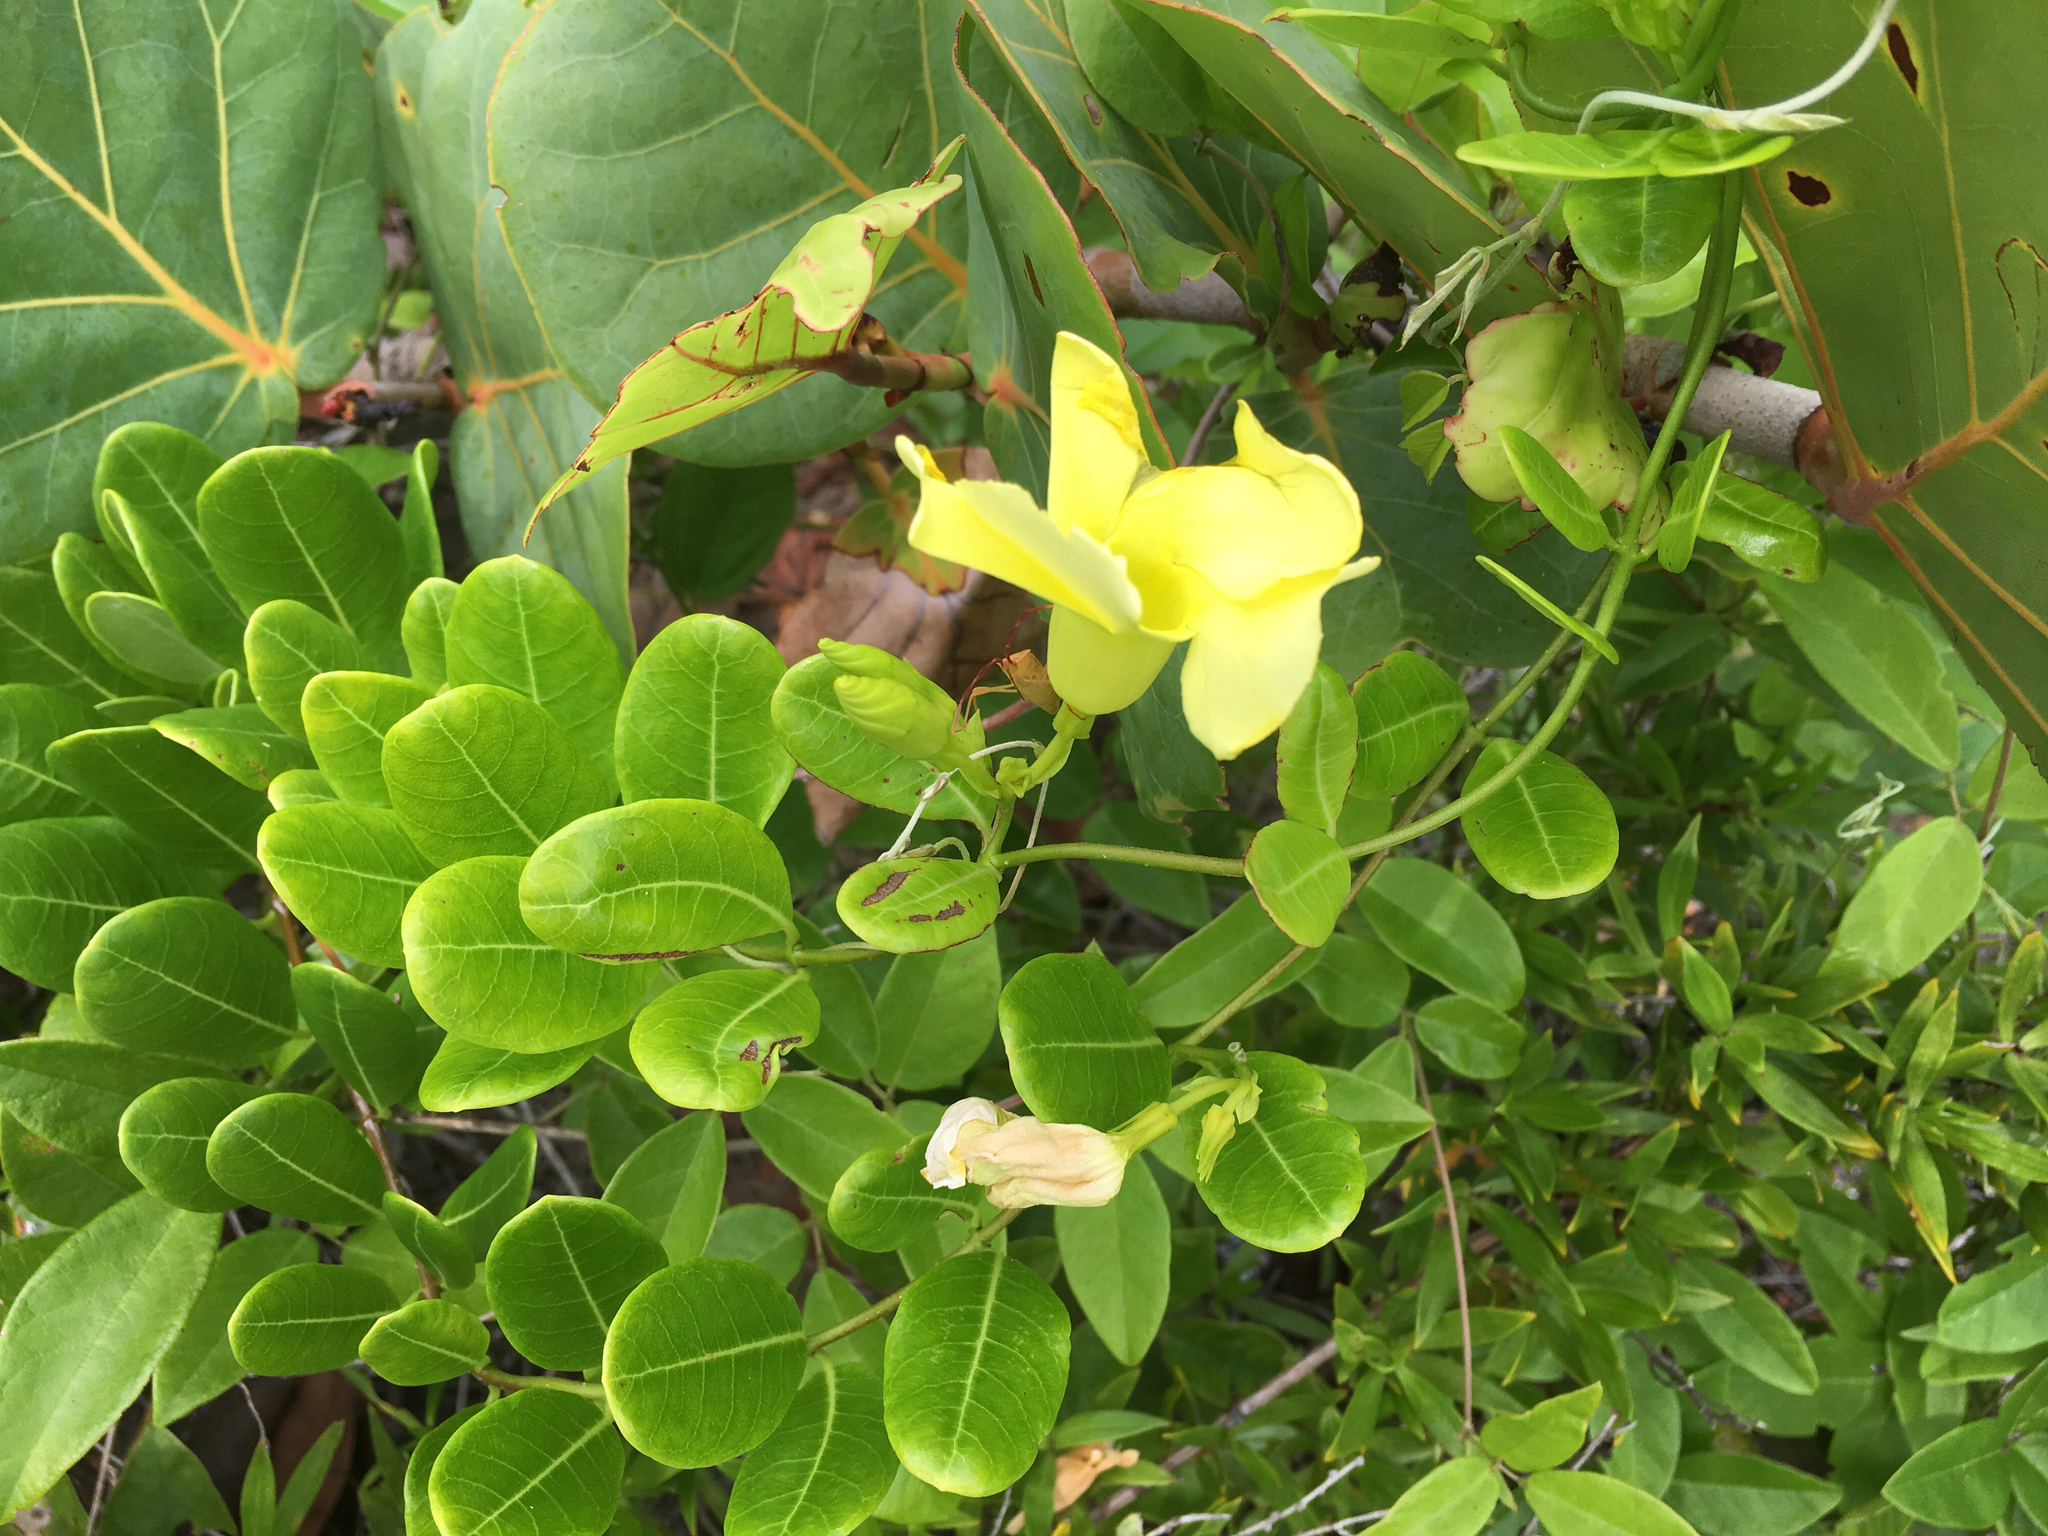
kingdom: Plantae
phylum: Tracheophyta
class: Magnoliopsida
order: Gentianales
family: Apocynaceae
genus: Pentalinon
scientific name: Pentalinon luteum
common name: Licebush
